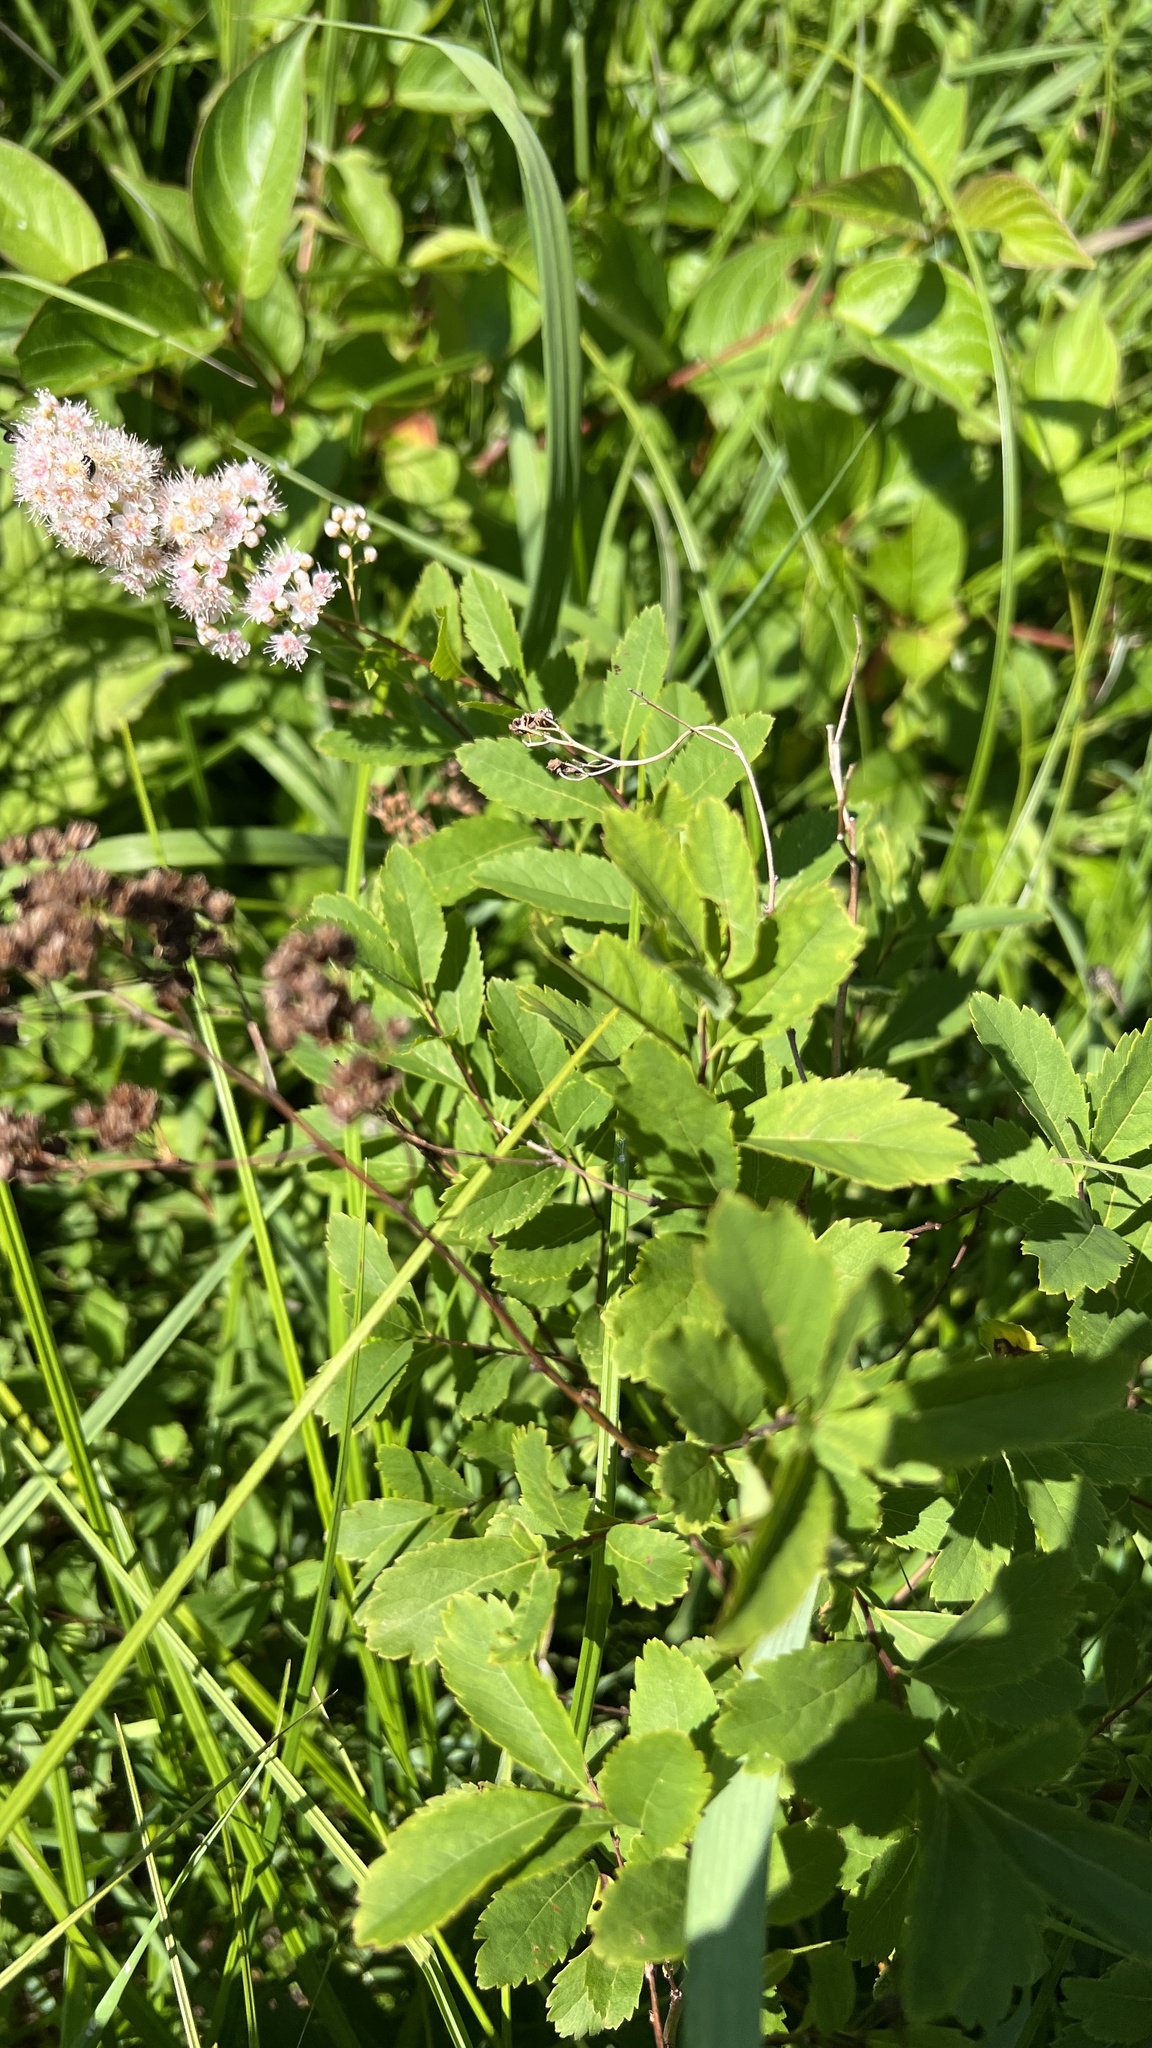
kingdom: Plantae
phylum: Tracheophyta
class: Magnoliopsida
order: Rosales
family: Rosaceae
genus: Spiraea
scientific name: Spiraea alba
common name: Pale bridewort
